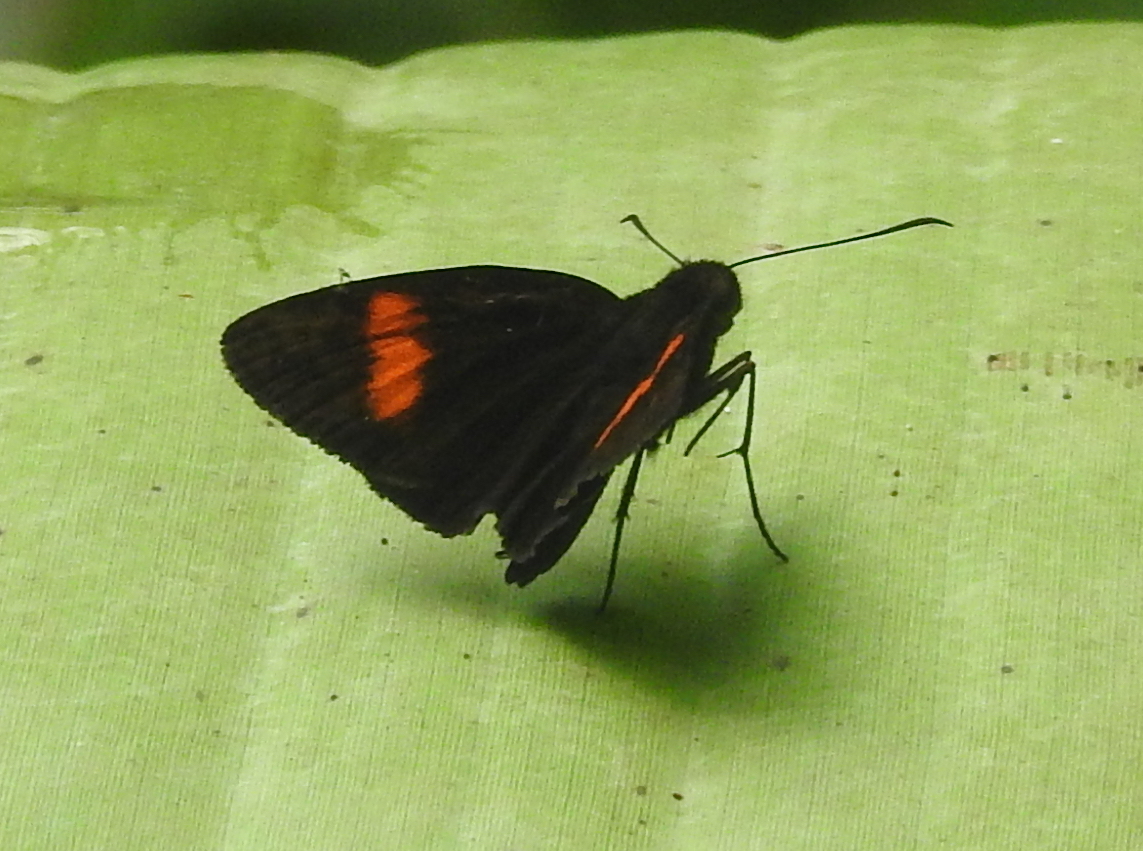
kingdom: Animalia
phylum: Arthropoda
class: Insecta
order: Lepidoptera
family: Hesperiidae
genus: Koruthaialos
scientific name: Koruthaialos rubecula
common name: Narrow-banded velvet bob
